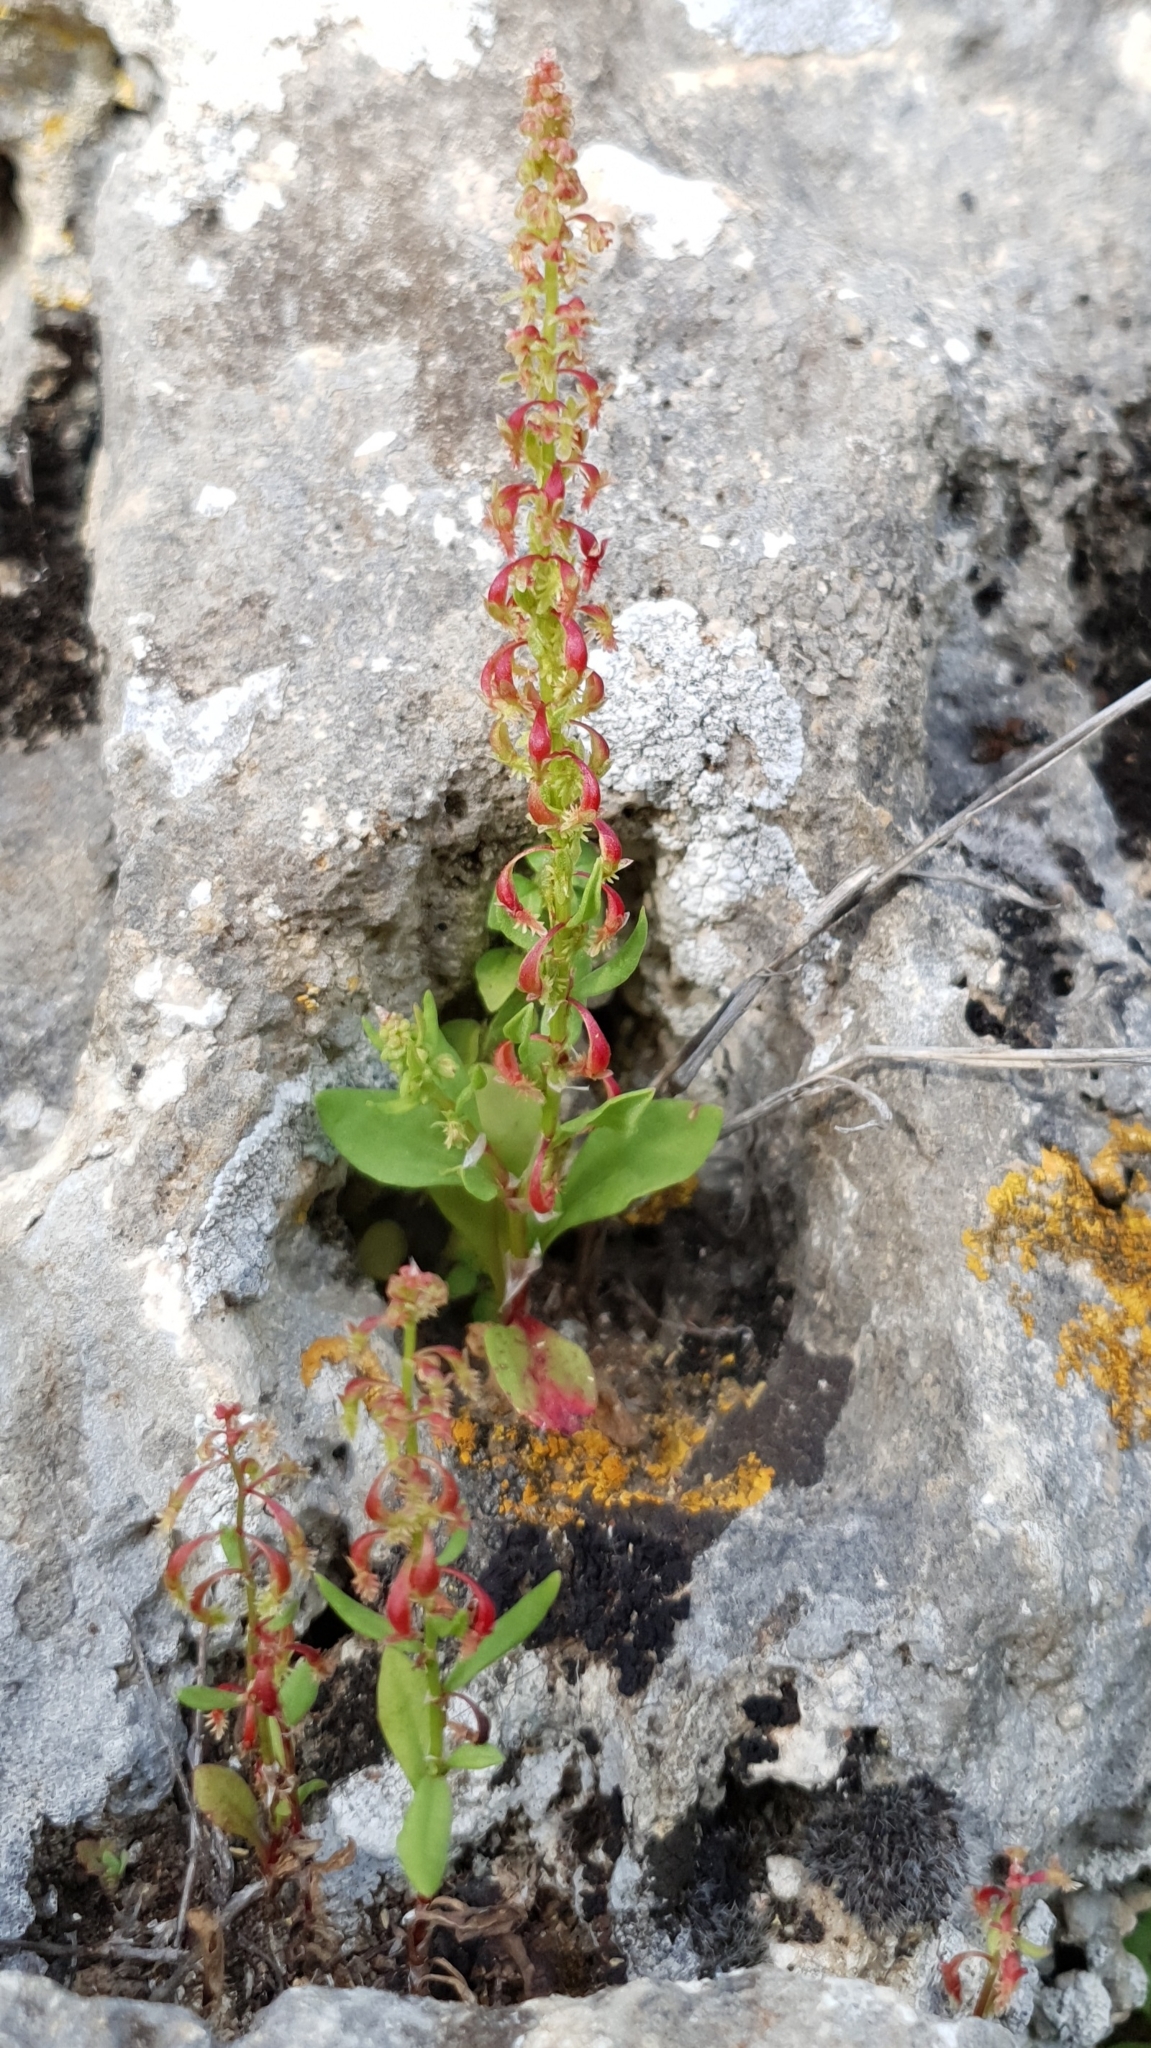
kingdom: Plantae
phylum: Tracheophyta
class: Magnoliopsida
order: Caryophyllales
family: Polygonaceae
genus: Rumex
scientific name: Rumex bucephalophorus
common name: Red dock
